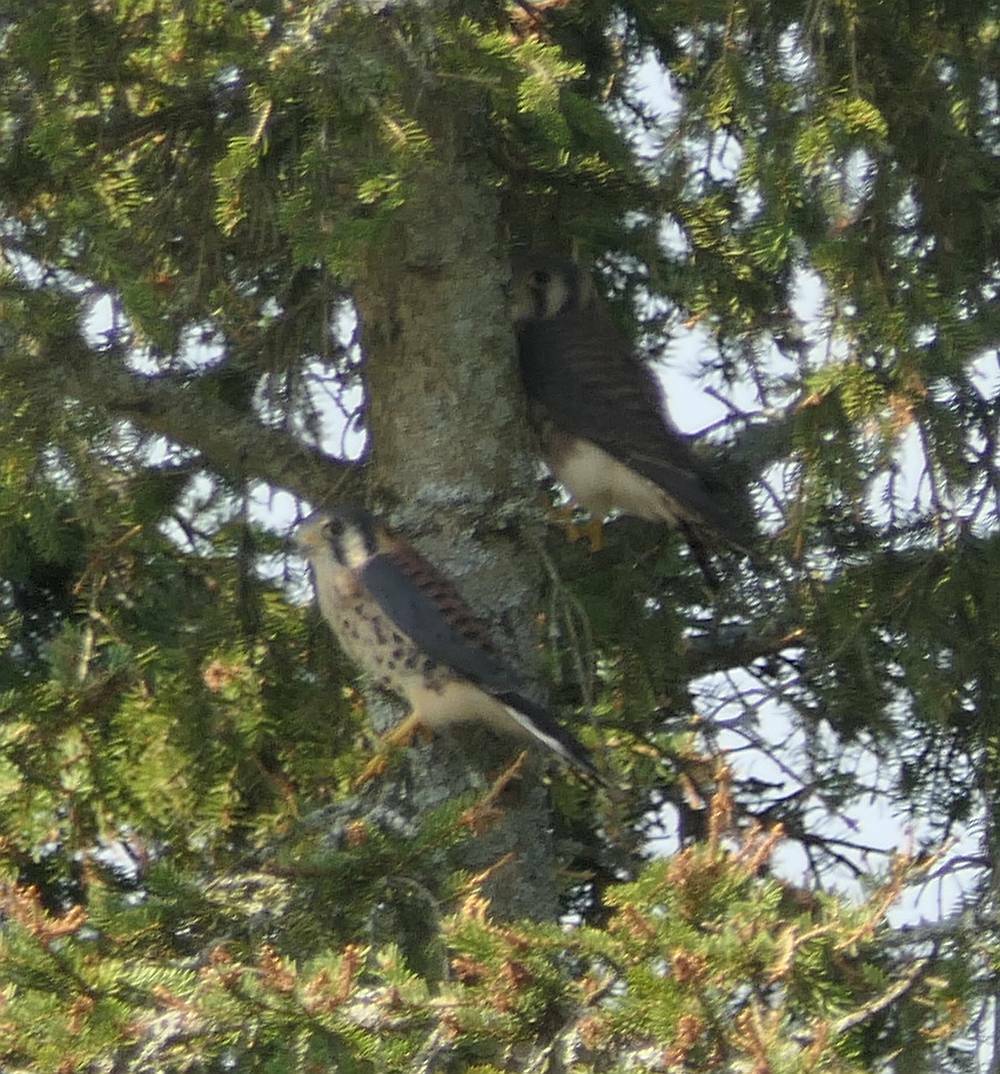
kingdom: Animalia
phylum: Chordata
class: Aves
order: Falconiformes
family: Falconidae
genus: Falco
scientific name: Falco sparverius
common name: American kestrel
